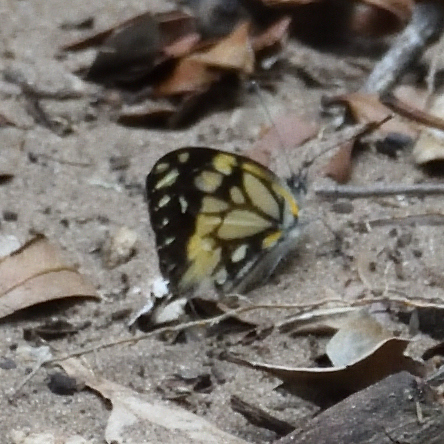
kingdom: Animalia
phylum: Arthropoda
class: Insecta
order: Lepidoptera
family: Pieridae
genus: Belenois
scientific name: Belenois creona
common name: African caper white
